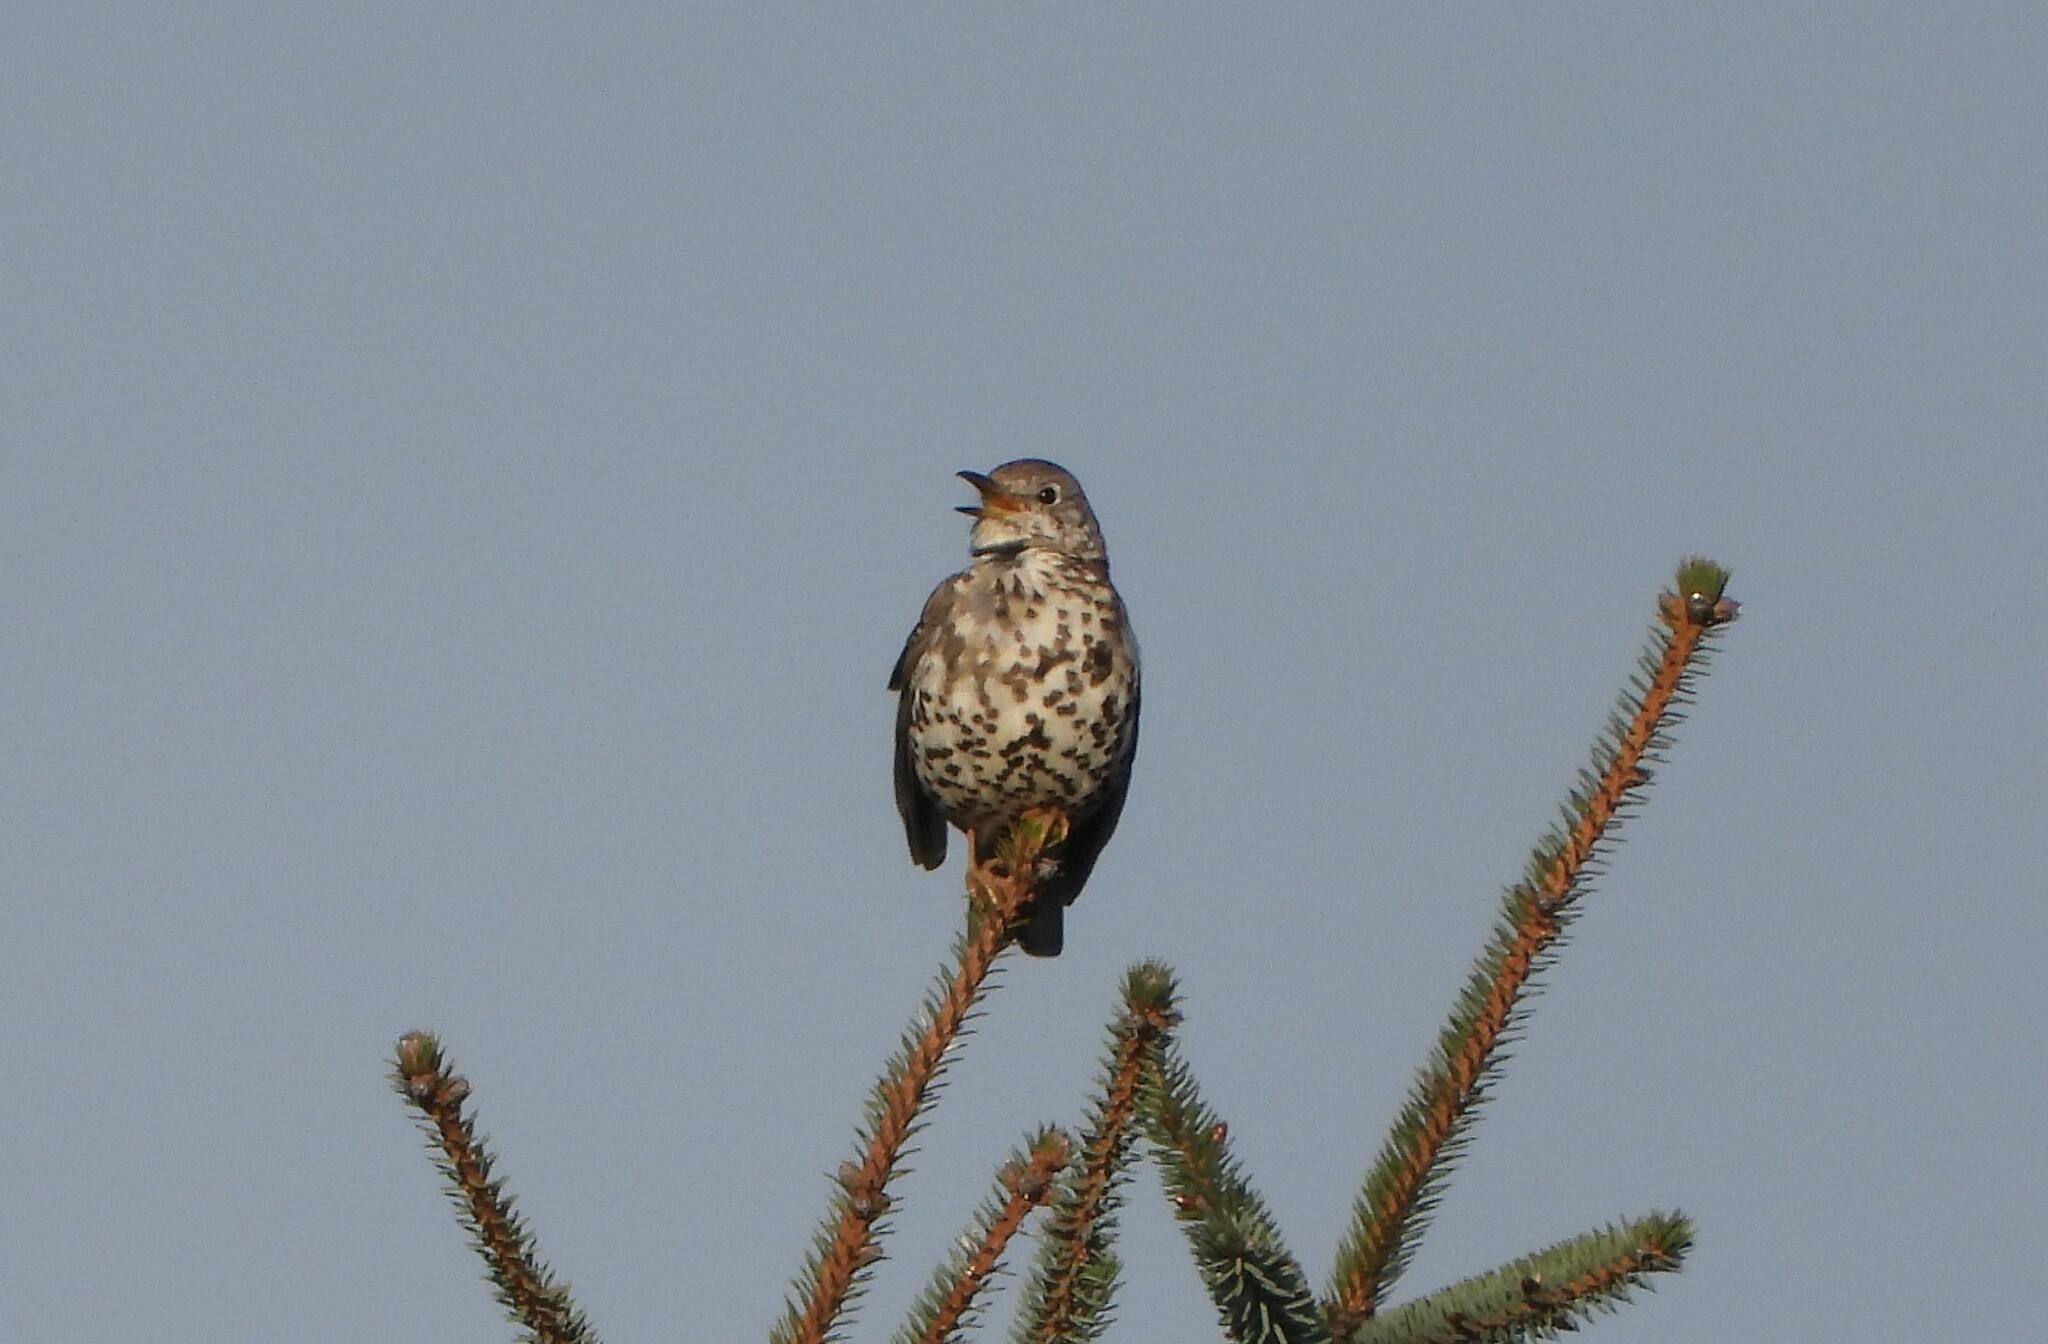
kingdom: Animalia
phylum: Chordata
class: Aves
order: Passeriformes
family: Turdidae
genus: Turdus
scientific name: Turdus viscivorus
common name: Mistle thrush
